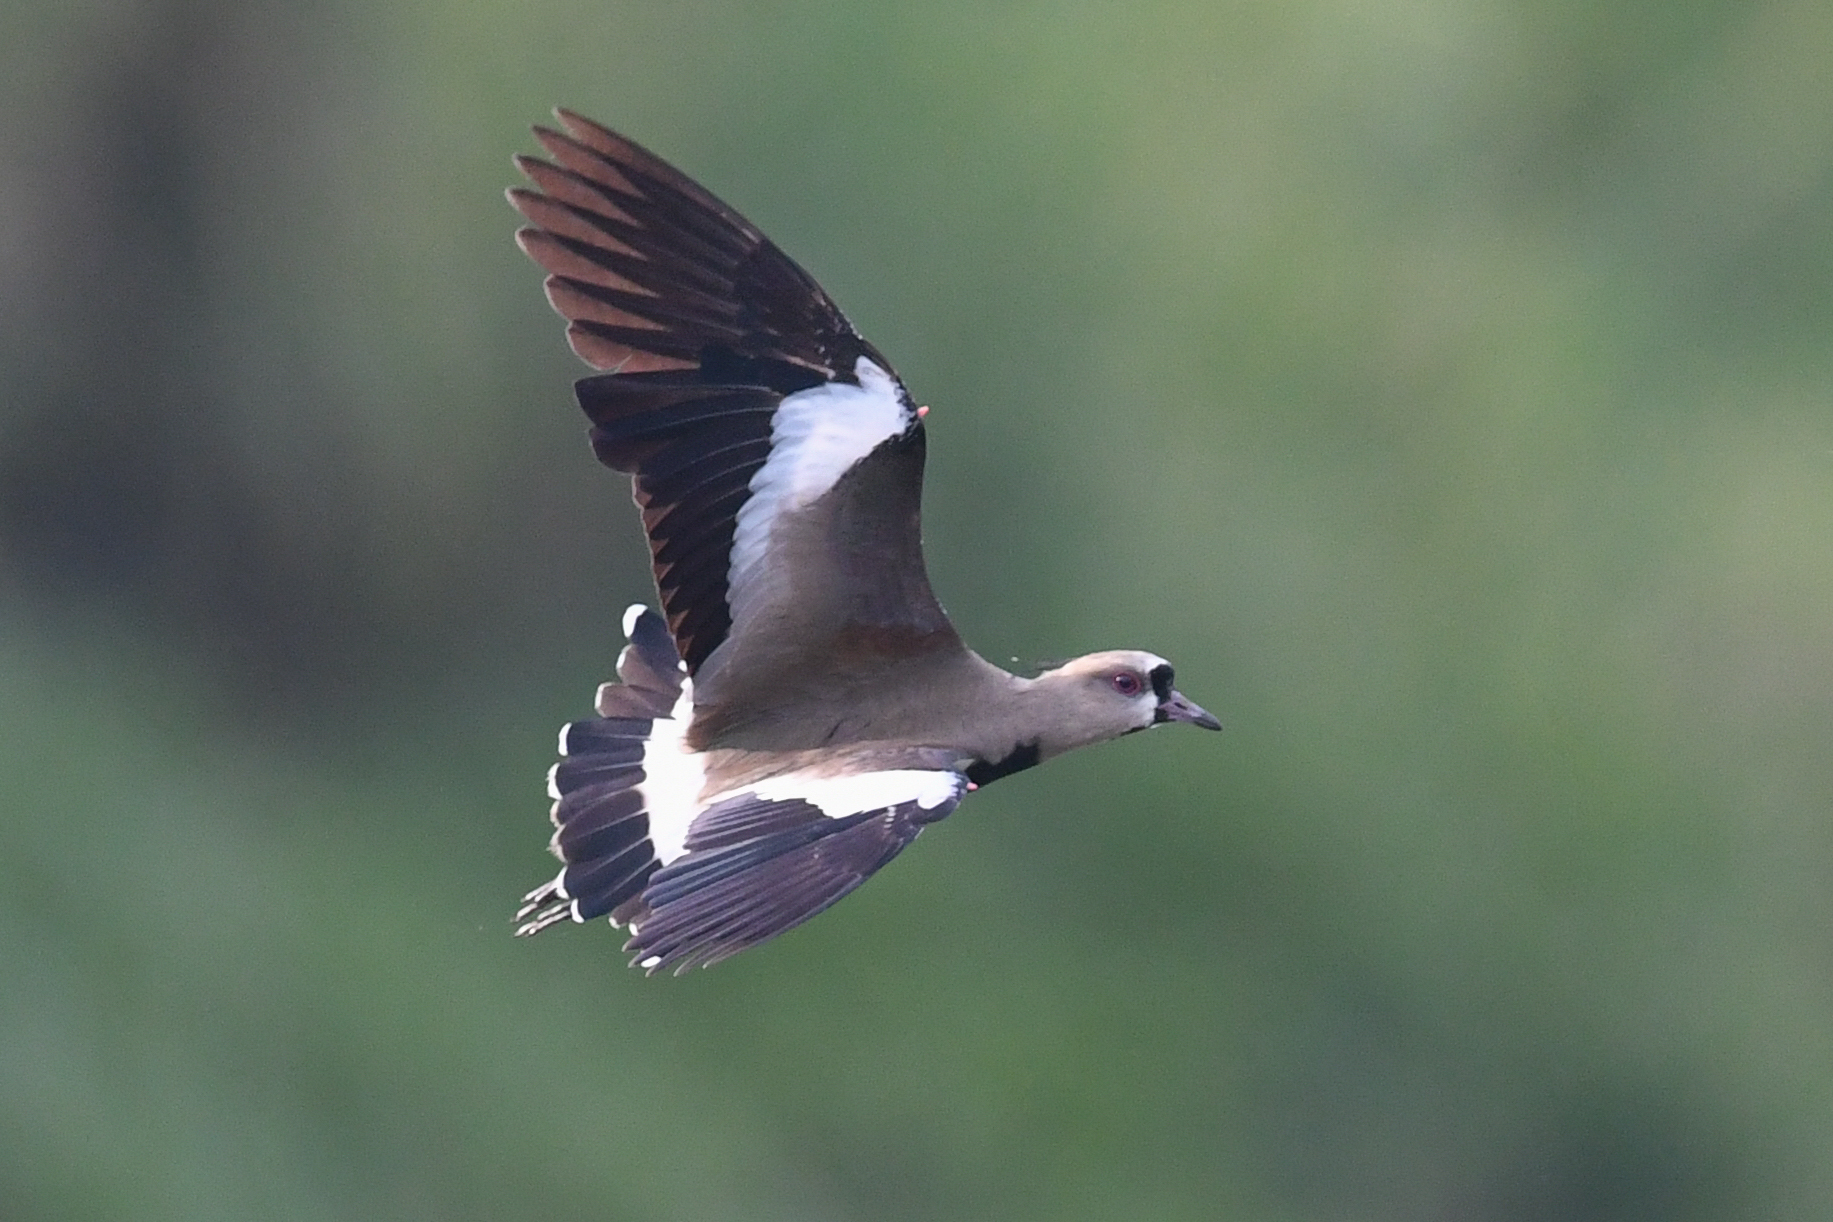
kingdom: Animalia
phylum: Chordata
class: Aves
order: Charadriiformes
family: Charadriidae
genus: Vanellus
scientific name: Vanellus chilensis
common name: Southern lapwing
